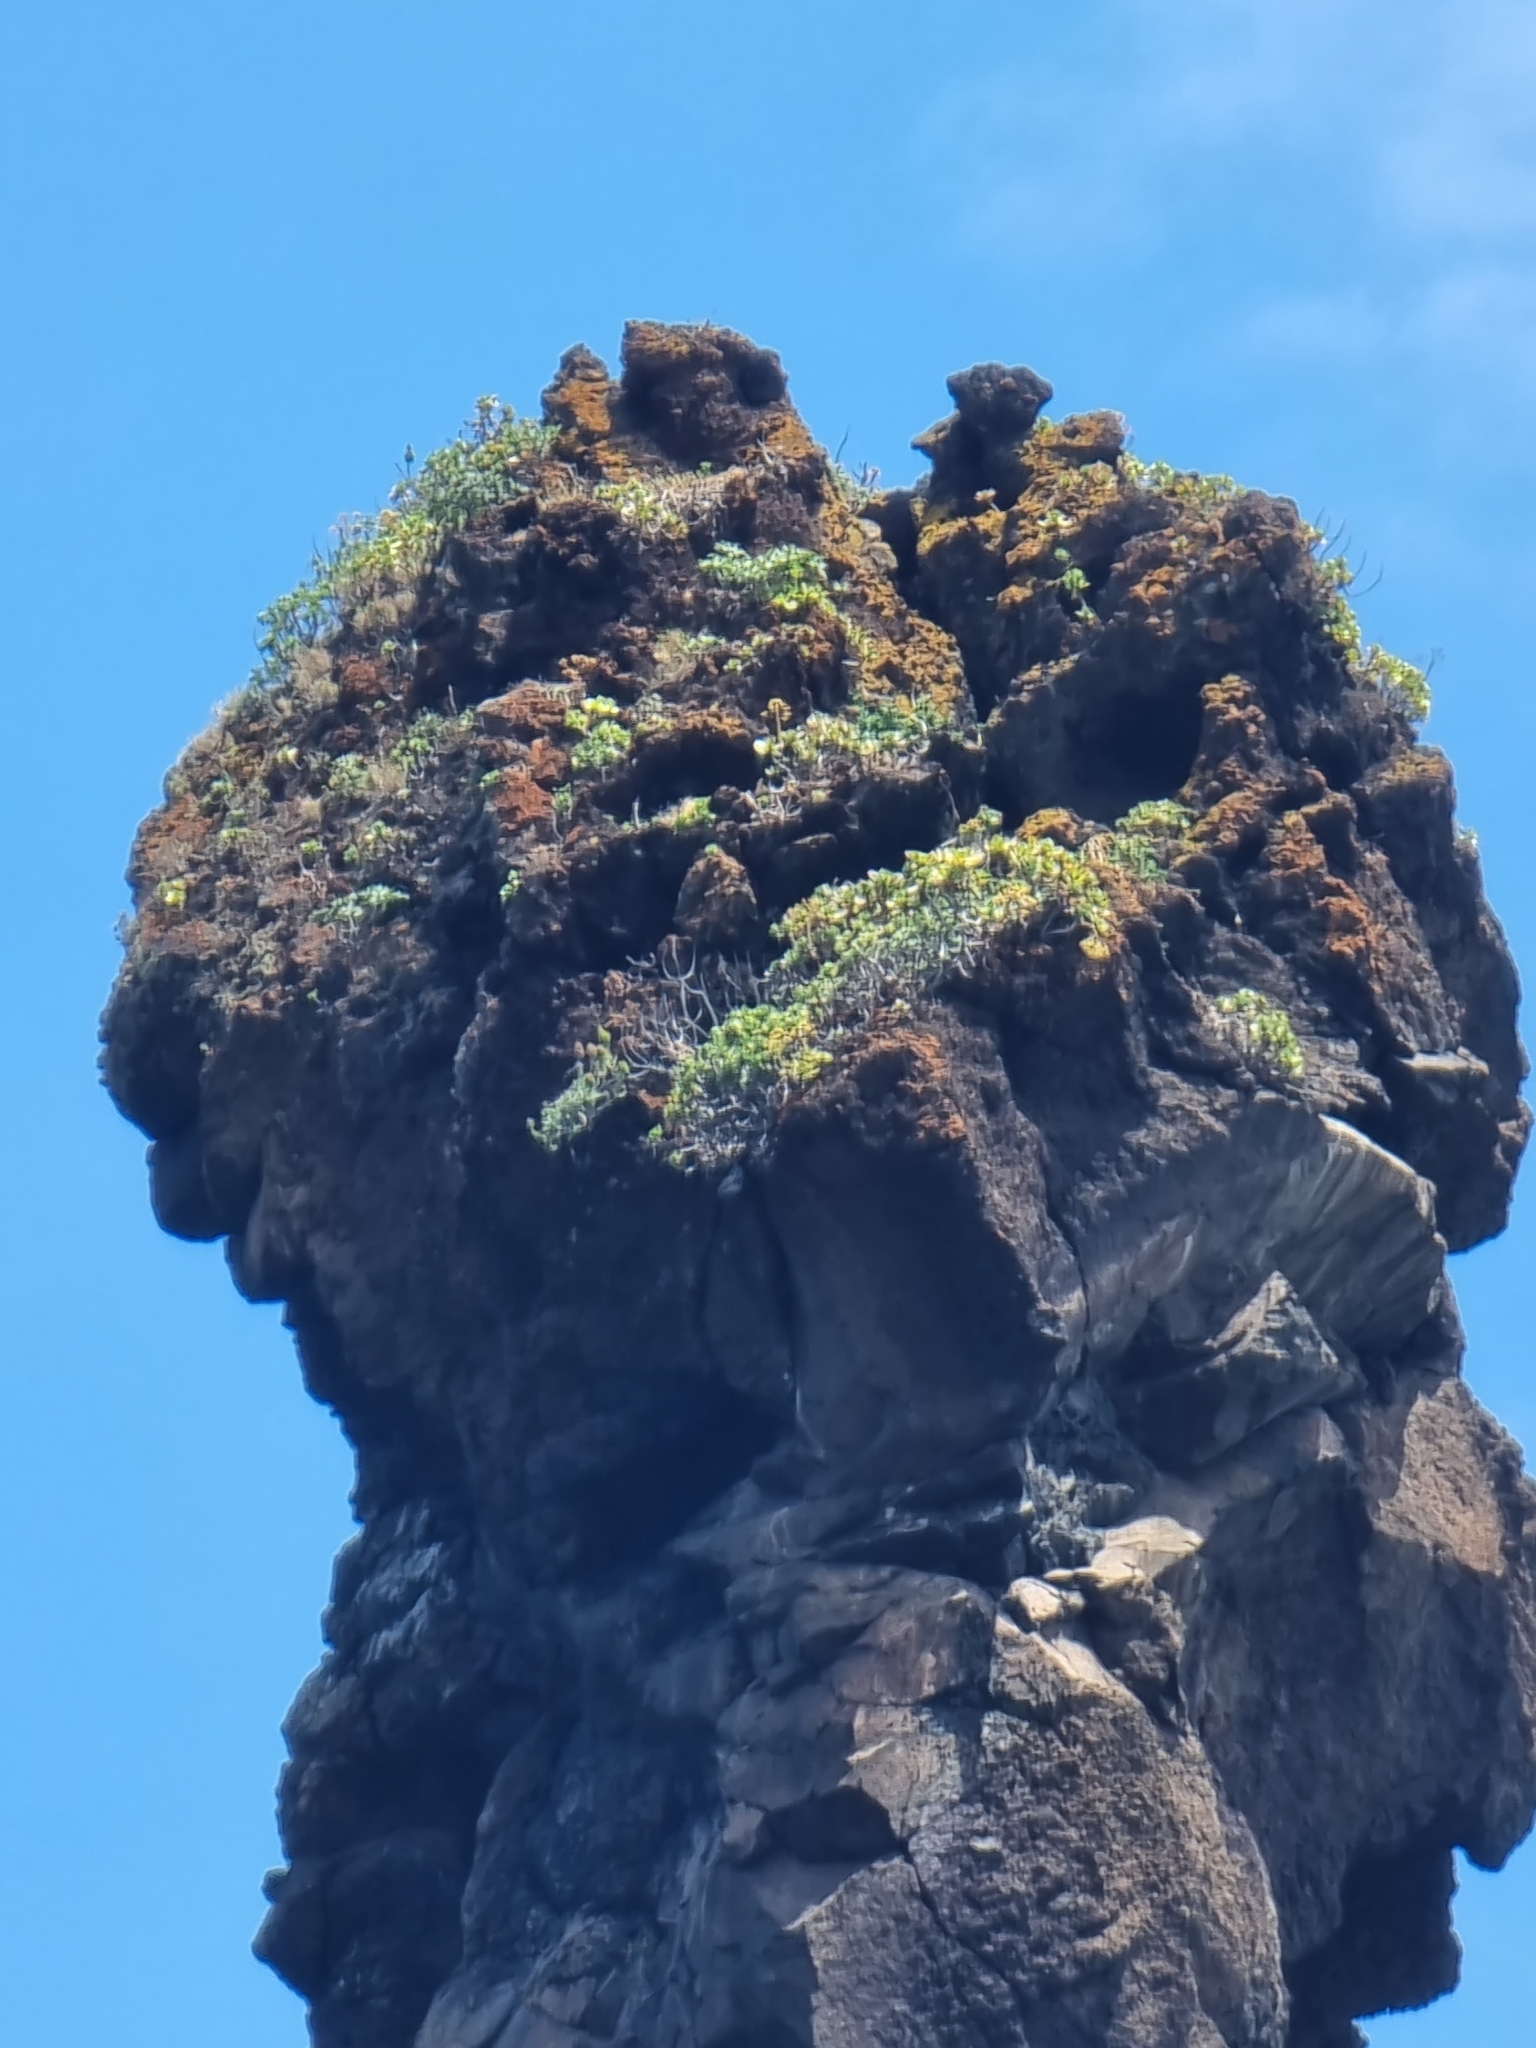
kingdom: Plantae
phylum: Tracheophyta
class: Magnoliopsida
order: Saxifragales
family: Crassulaceae
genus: Aeonium
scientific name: Aeonium glutinosum
